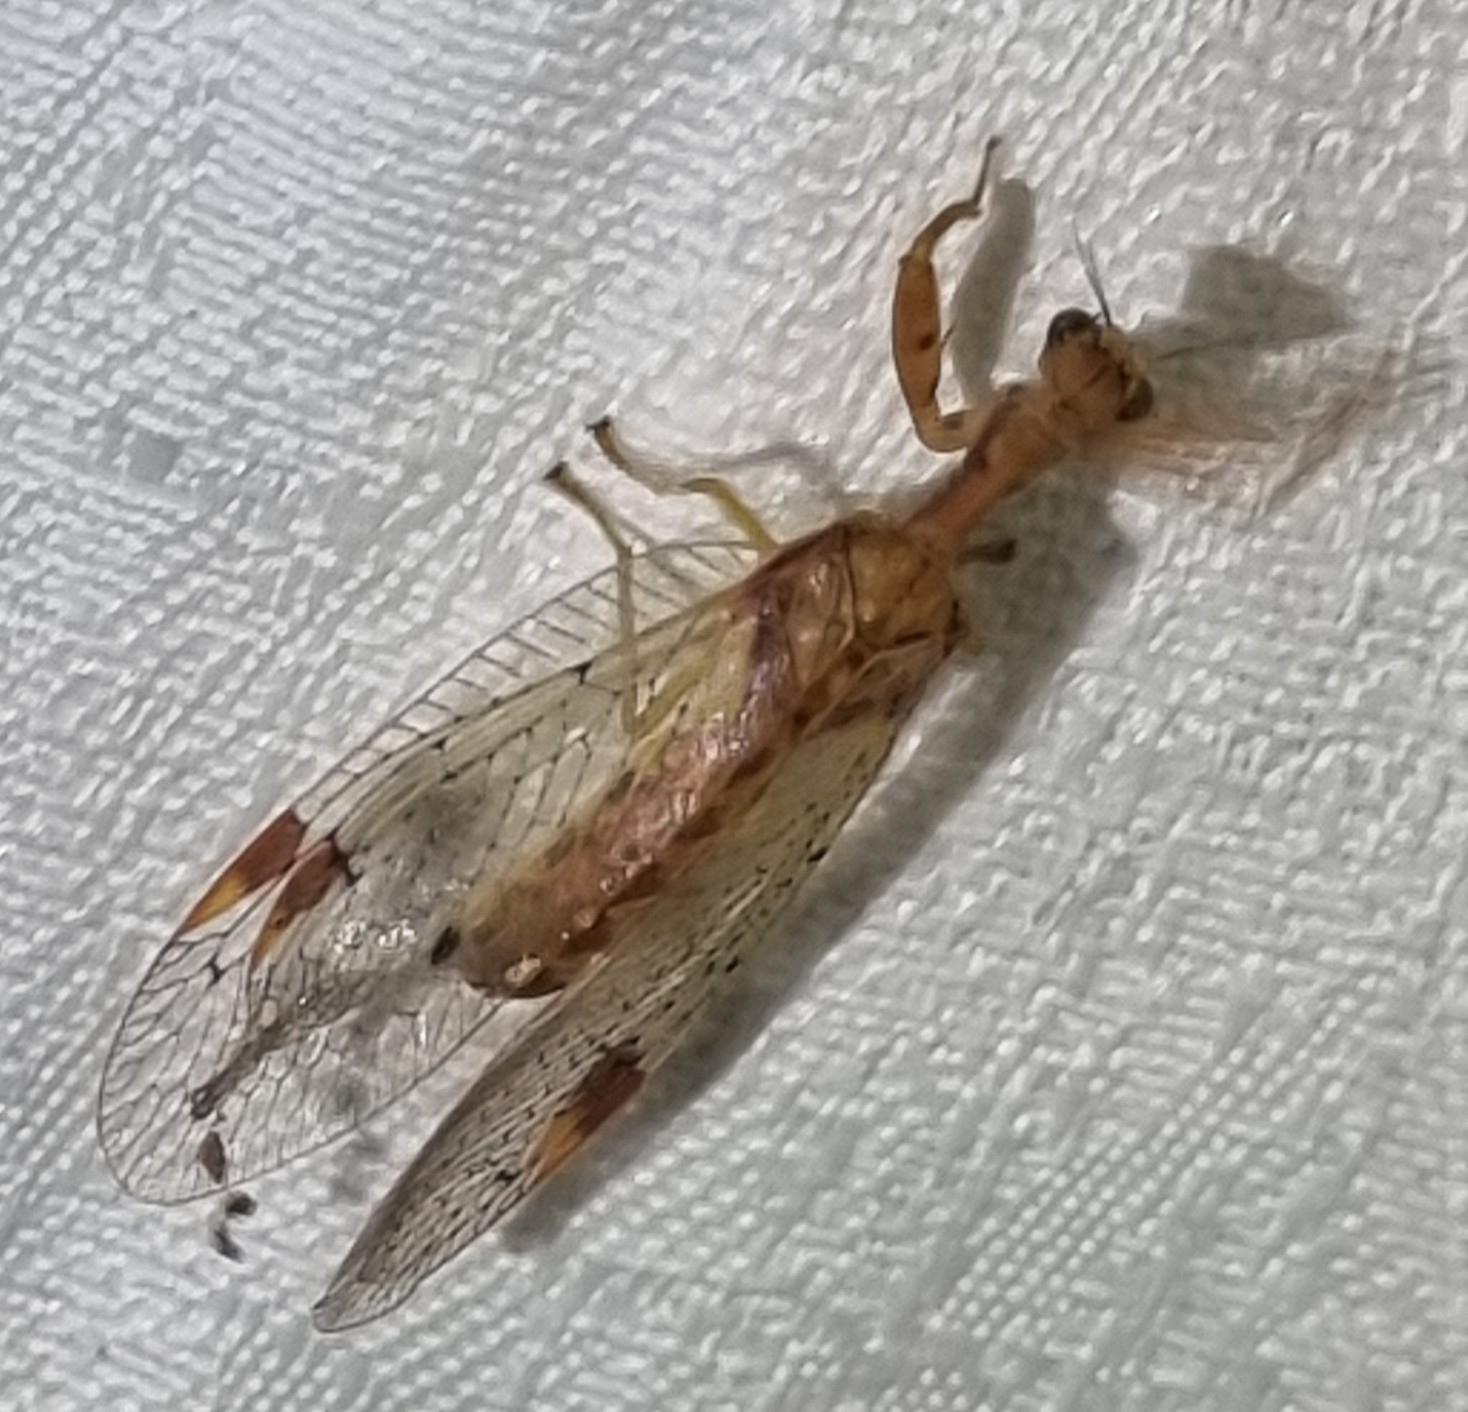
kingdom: Animalia
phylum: Arthropoda
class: Insecta
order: Neuroptera
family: Mantispidae
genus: Ditaxis
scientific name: Ditaxis biseriata
